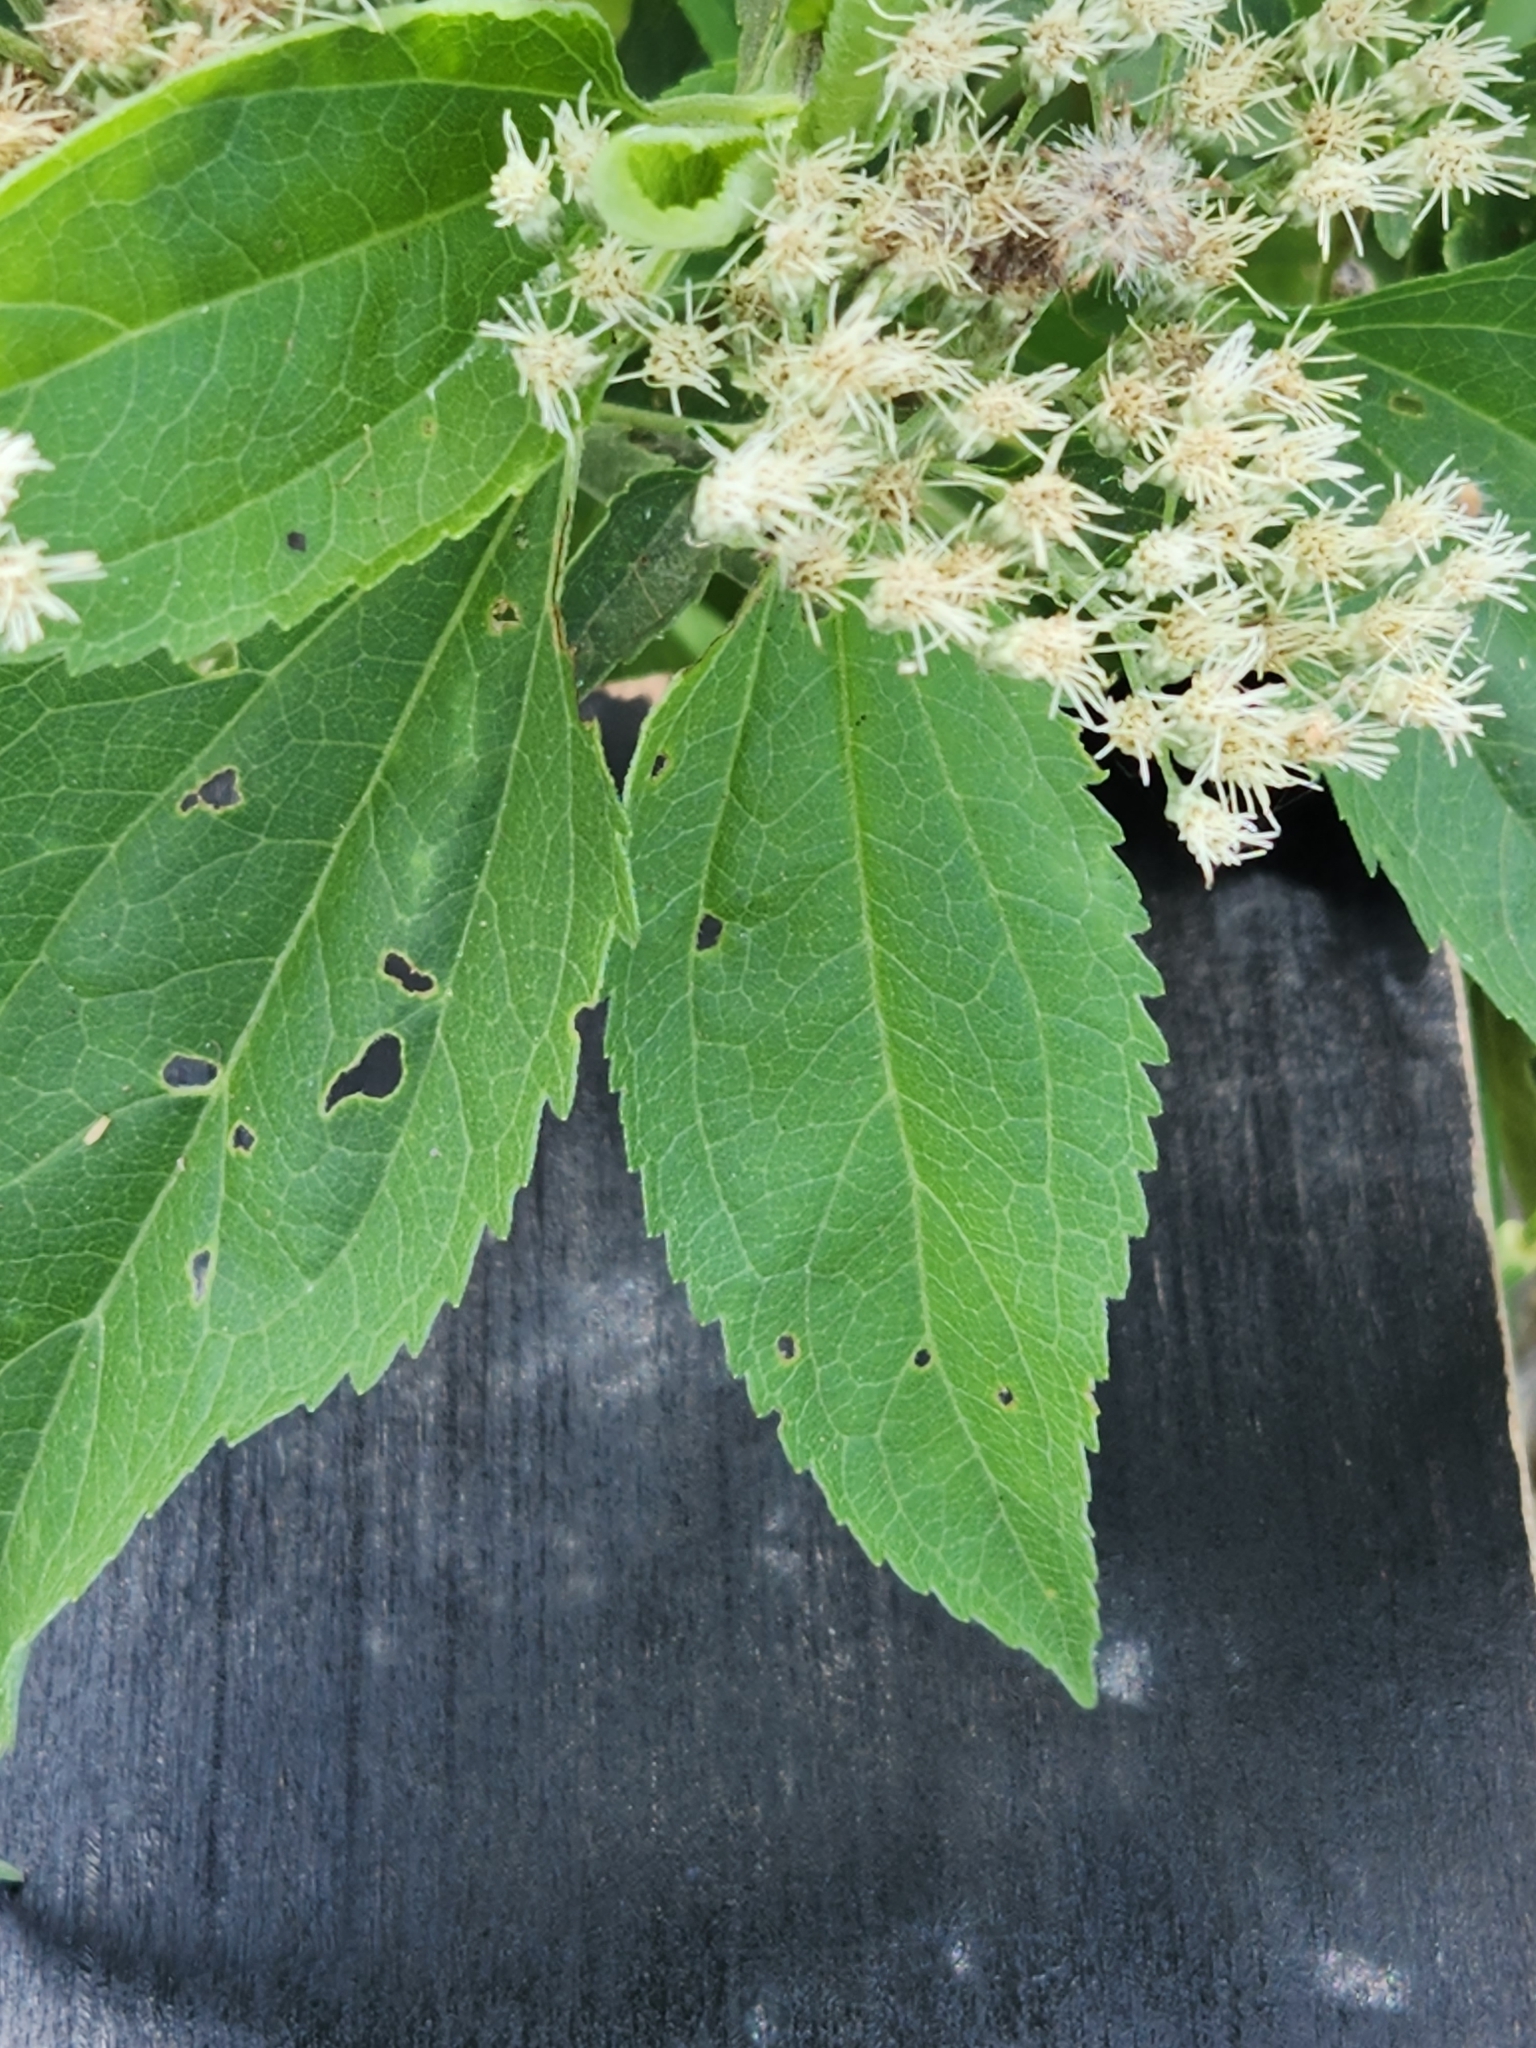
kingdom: Plantae
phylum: Tracheophyta
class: Magnoliopsida
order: Asterales
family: Asteraceae
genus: Eupatorium
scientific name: Eupatorium serotinum
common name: Late boneset
